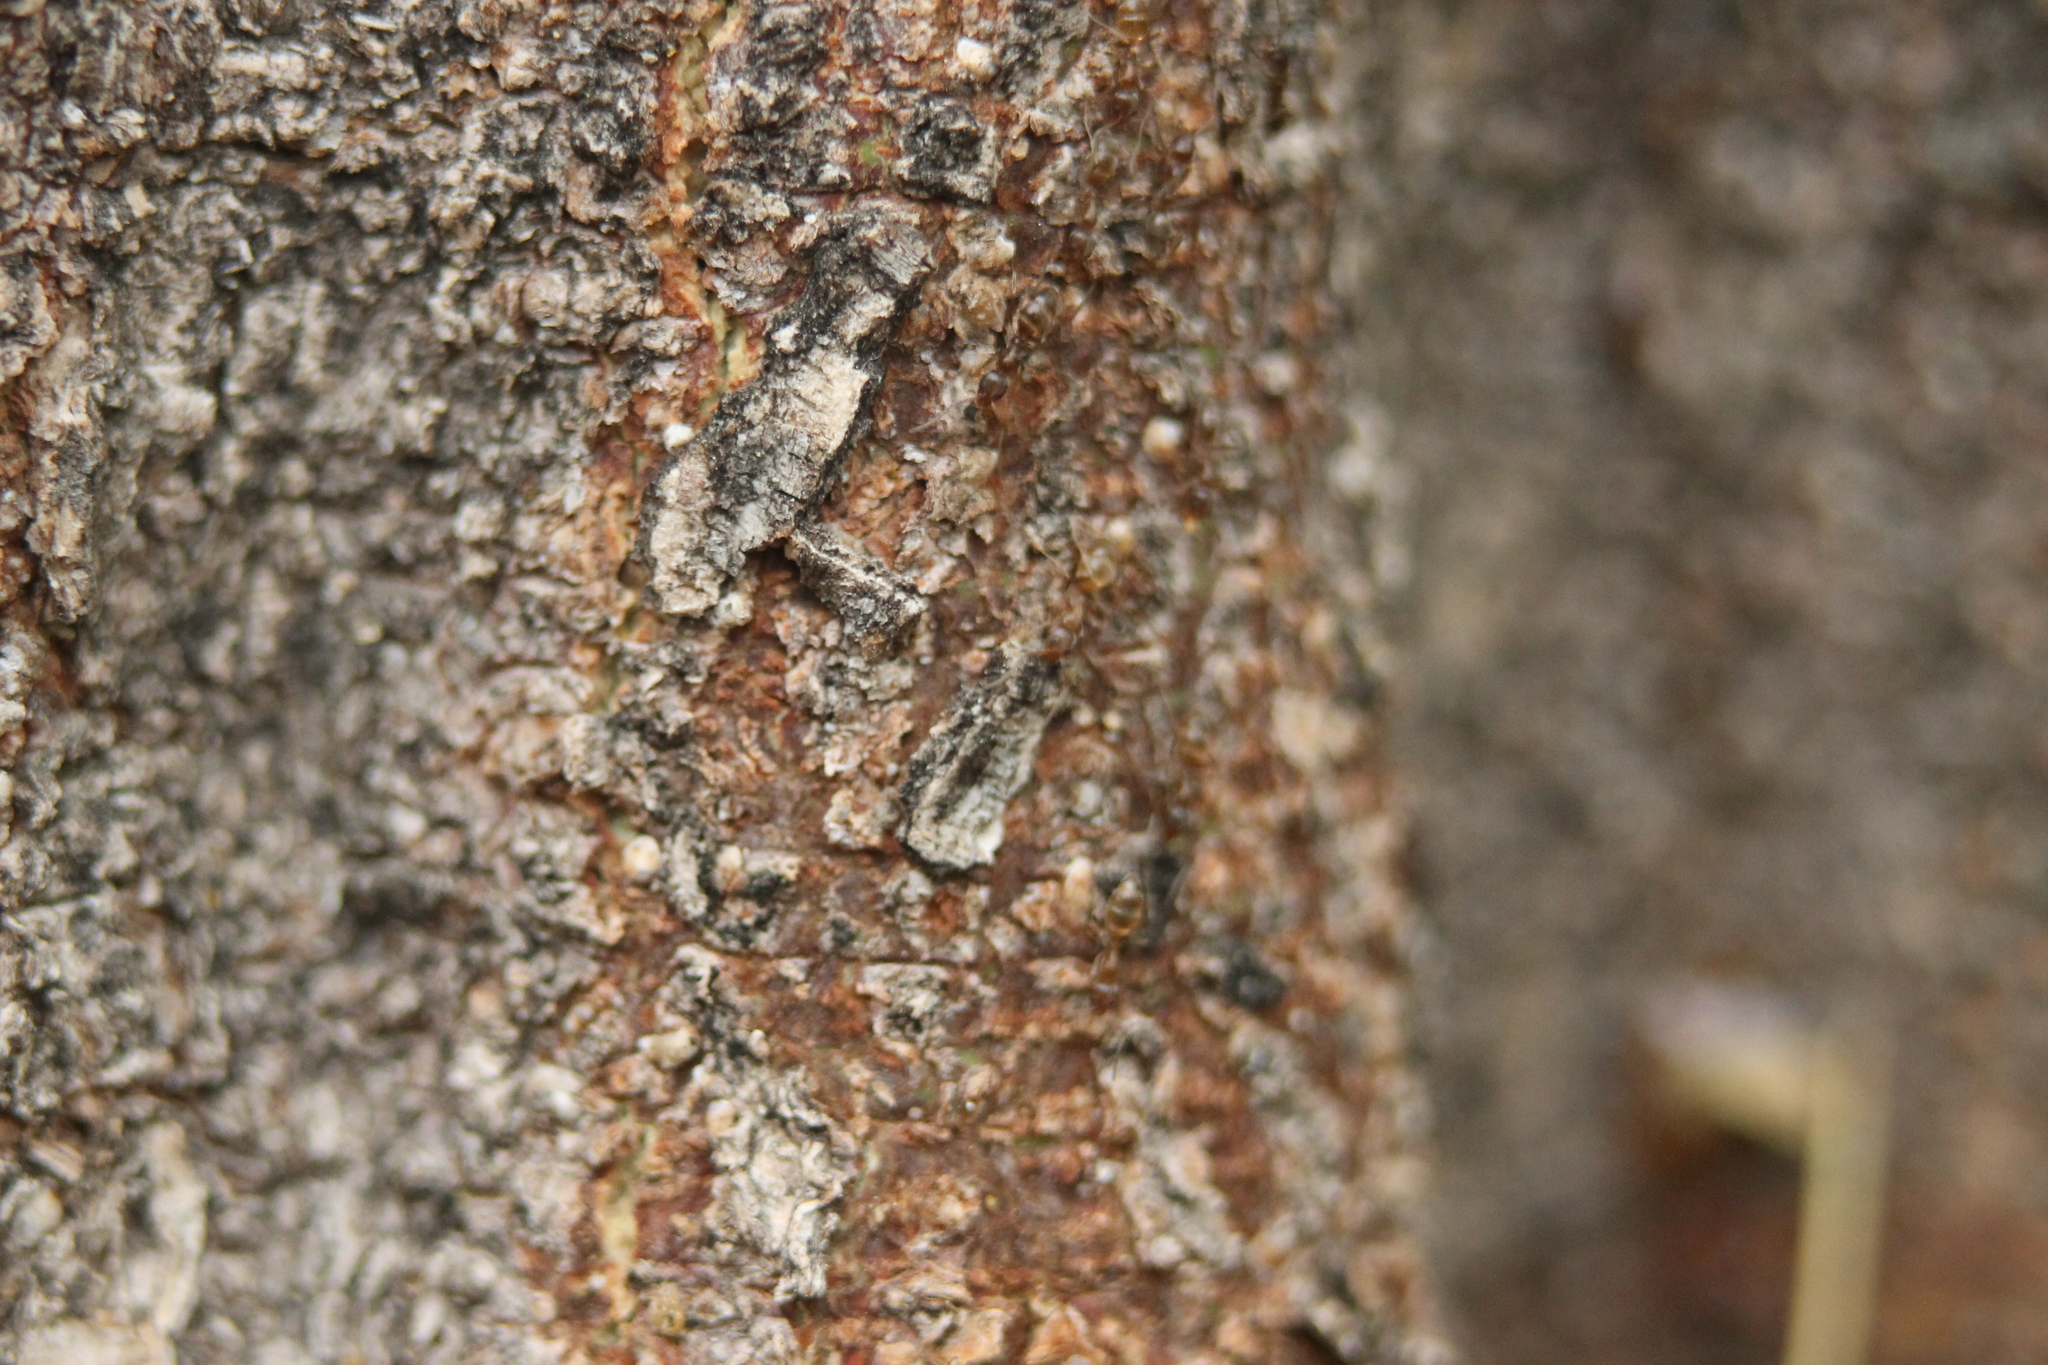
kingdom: Animalia
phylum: Arthropoda
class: Insecta
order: Hymenoptera
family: Formicidae
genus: Linepithema
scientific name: Linepithema humile
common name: Argentine ant
